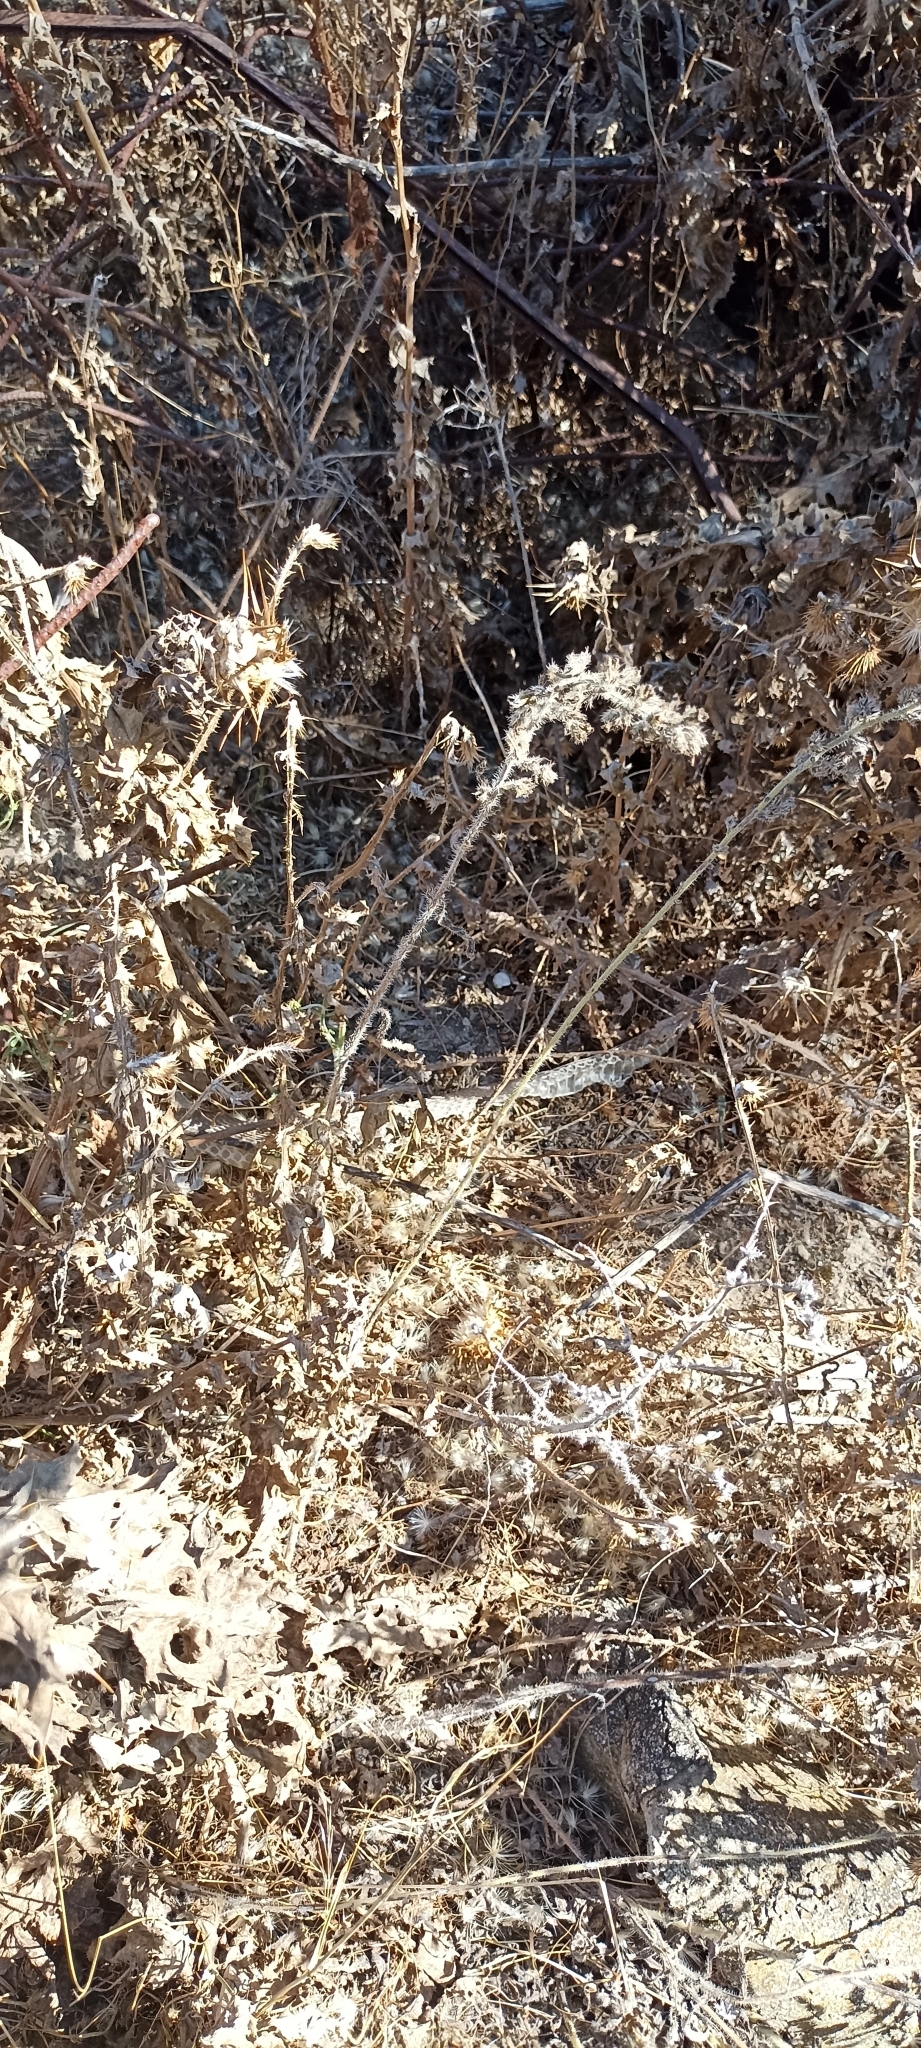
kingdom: Animalia
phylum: Chordata
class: Squamata
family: Psammophiidae
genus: Malpolon
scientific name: Malpolon monspessulanus
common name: Montpellier snake
